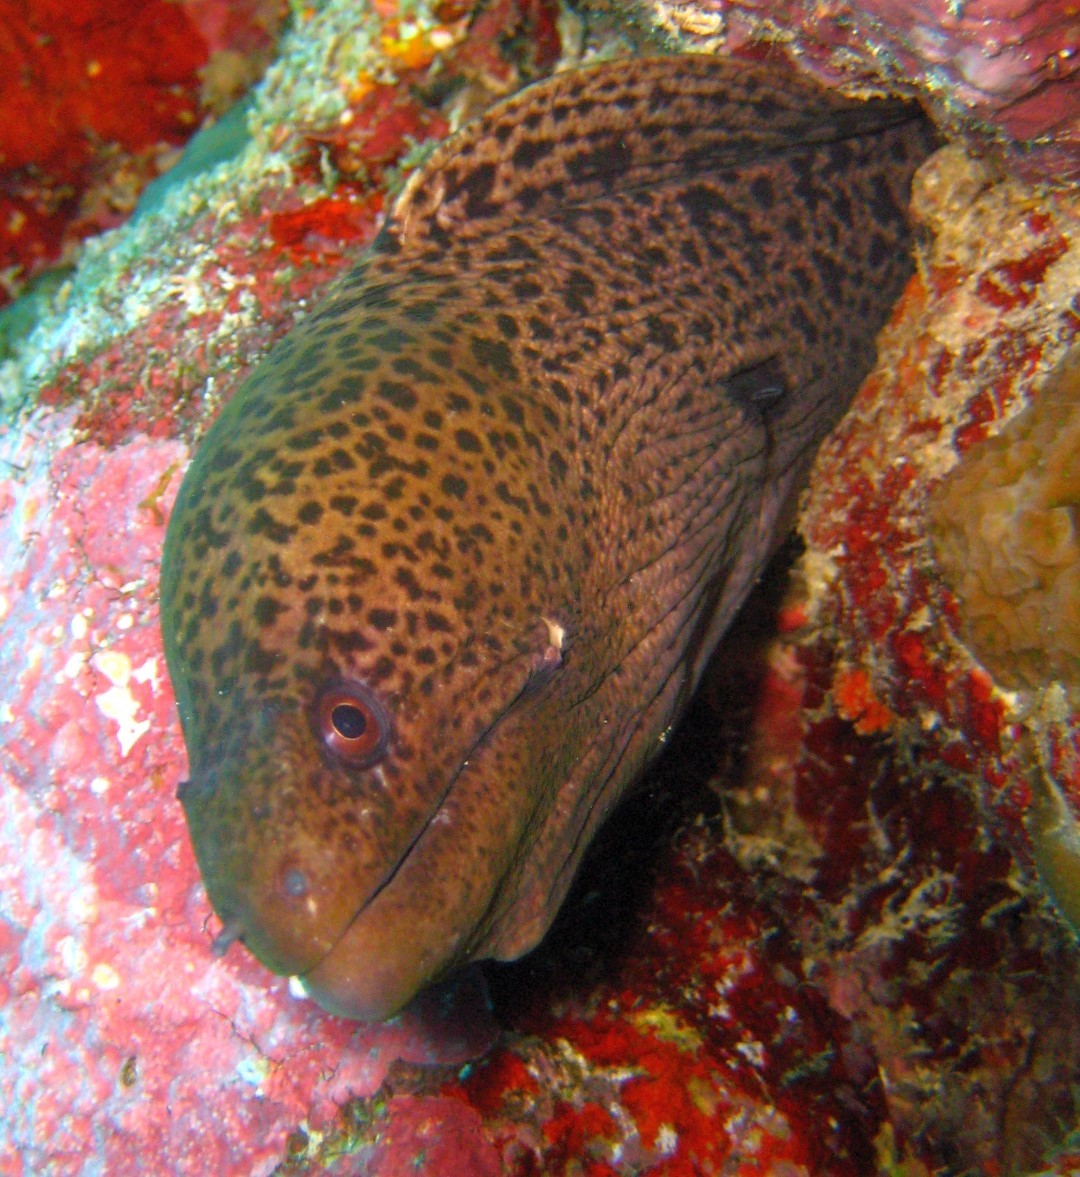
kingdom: Animalia
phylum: Chordata
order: Anguilliformes
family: Muraenidae
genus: Gymnothorax
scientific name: Gymnothorax javanicus
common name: Giant moray
